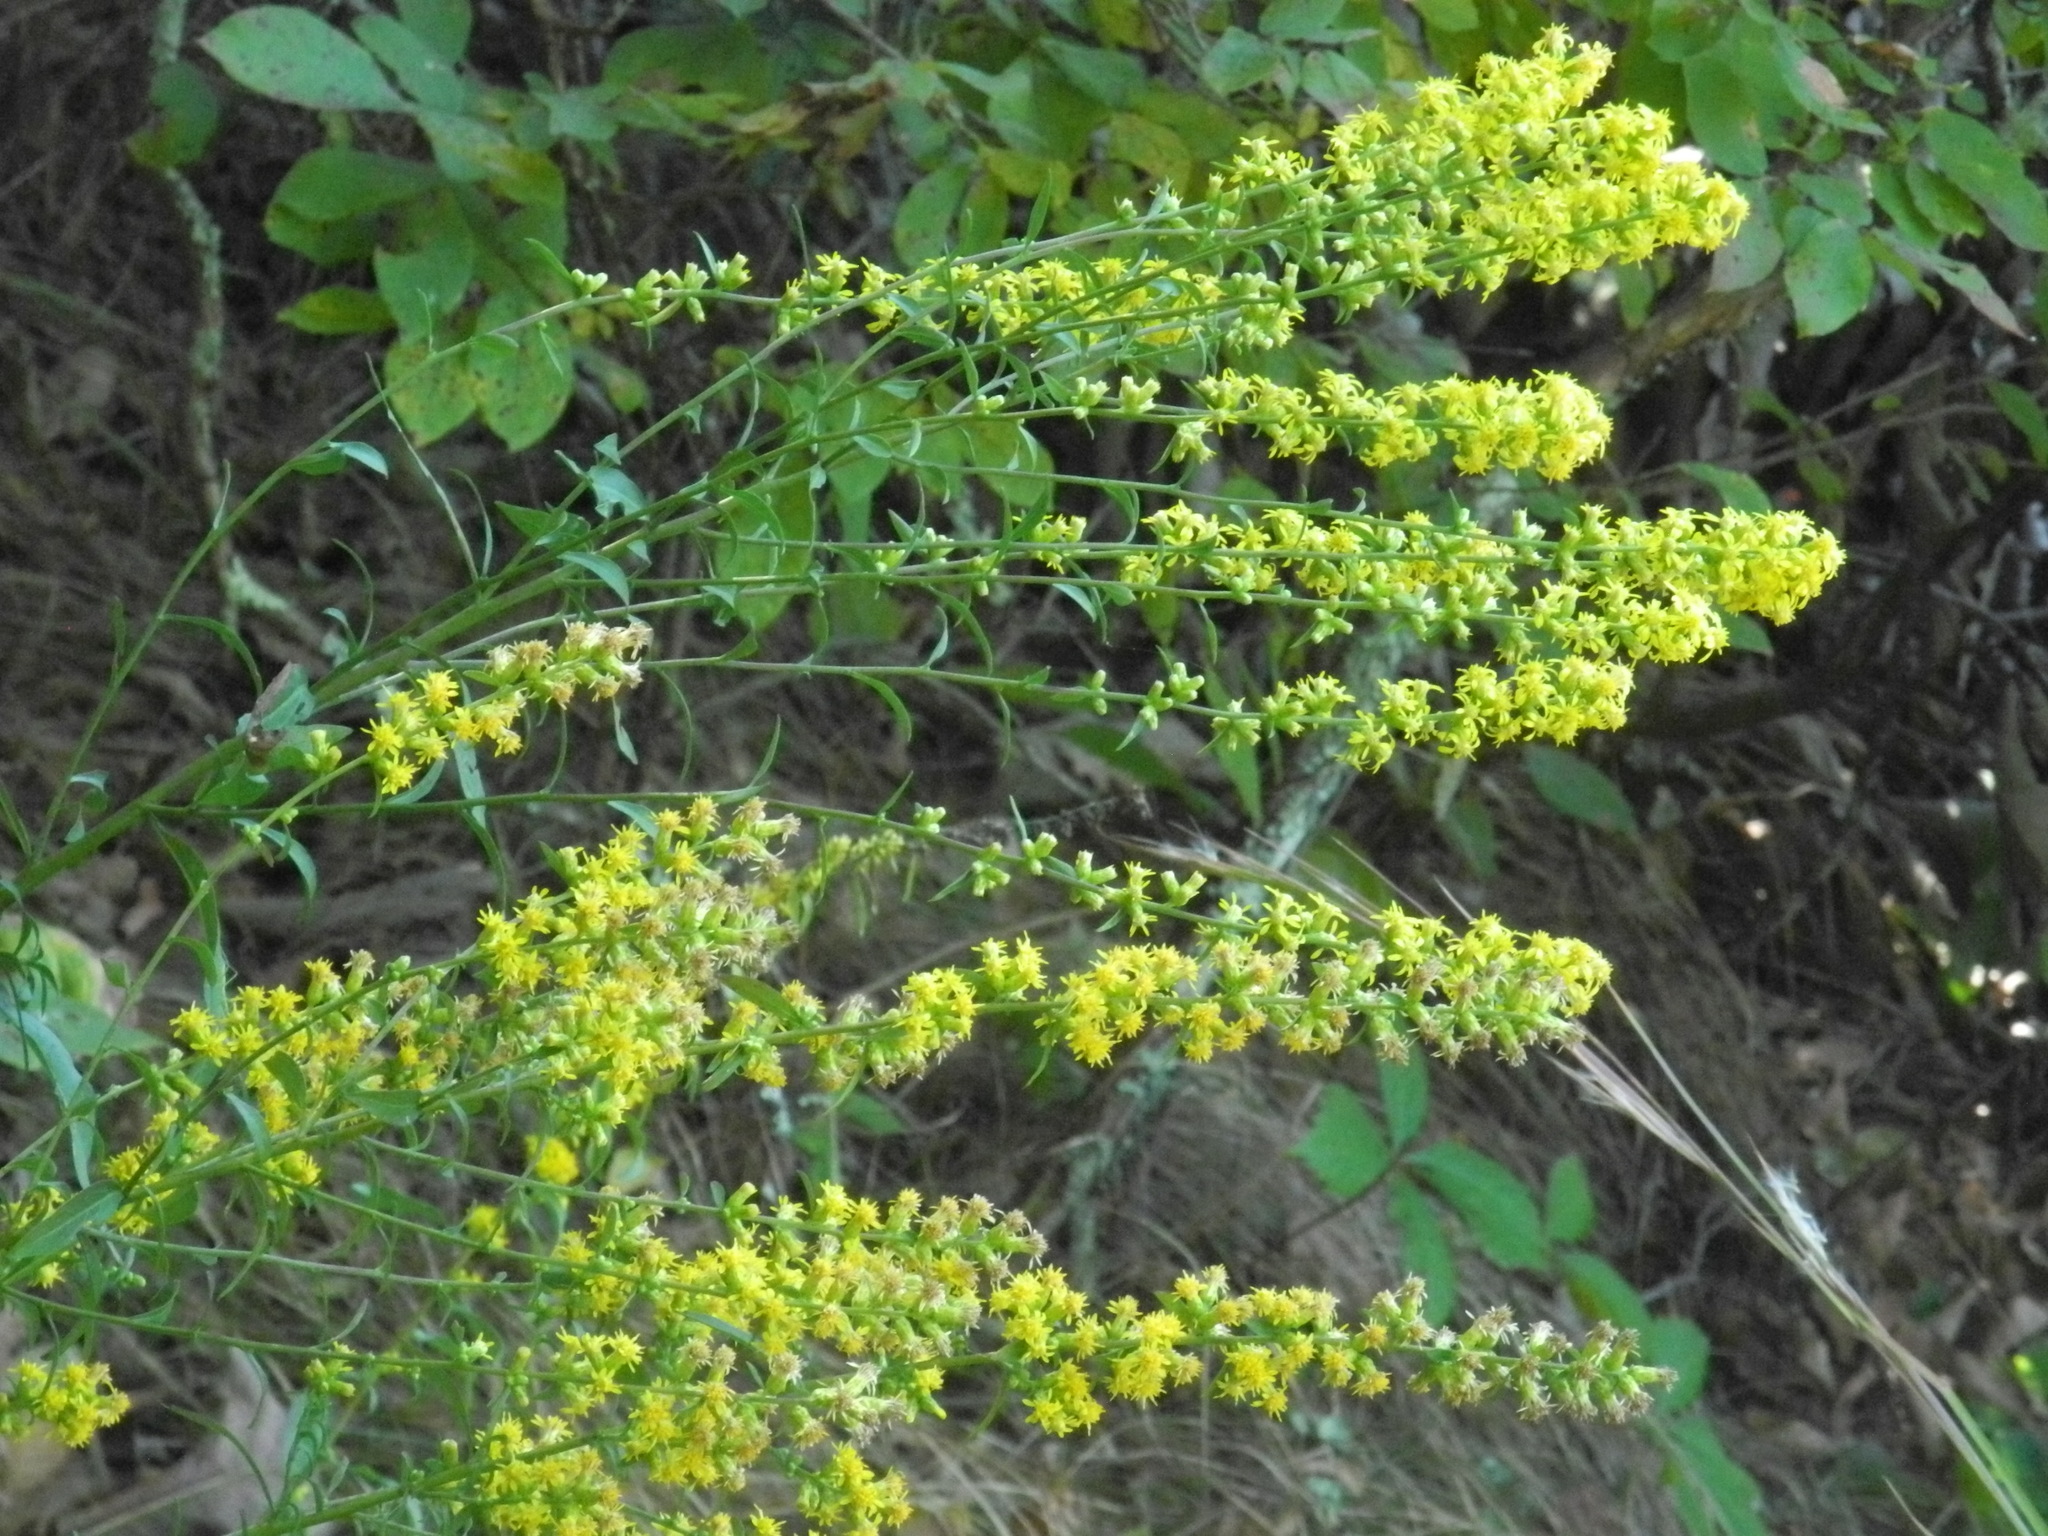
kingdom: Plantae
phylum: Tracheophyta
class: Magnoliopsida
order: Asterales
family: Asteraceae
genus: Solidago
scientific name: Solidago erecta
